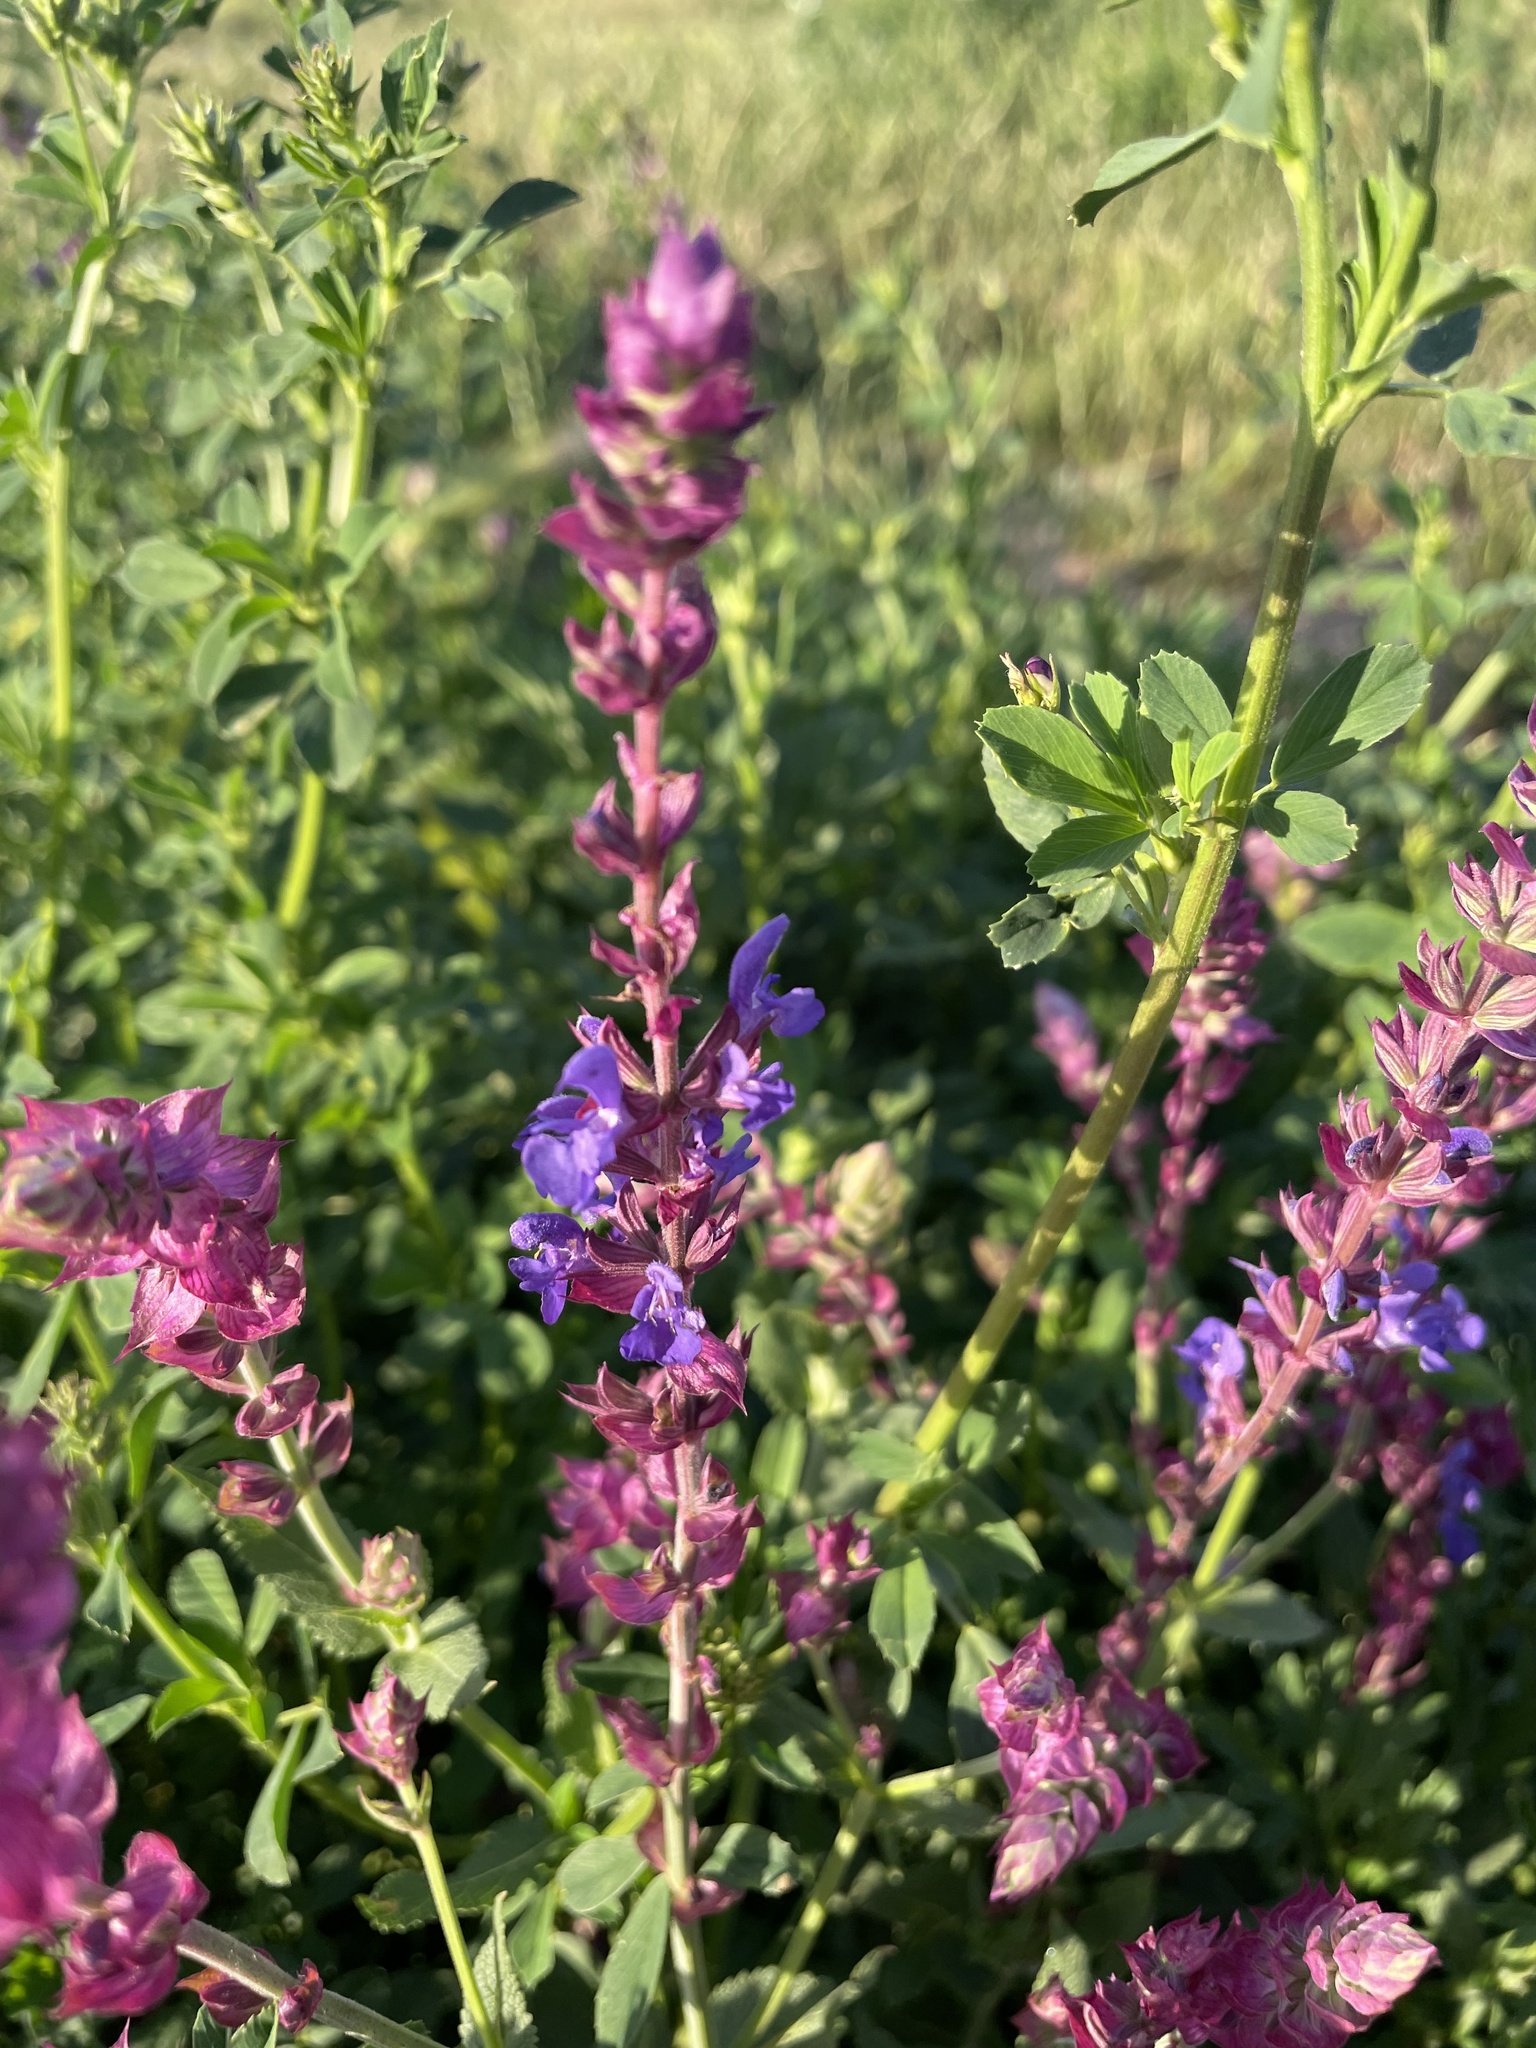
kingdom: Plantae
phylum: Tracheophyta
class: Magnoliopsida
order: Lamiales
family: Lamiaceae
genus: Salvia
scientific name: Salvia nemorosa
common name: Balkan clary
